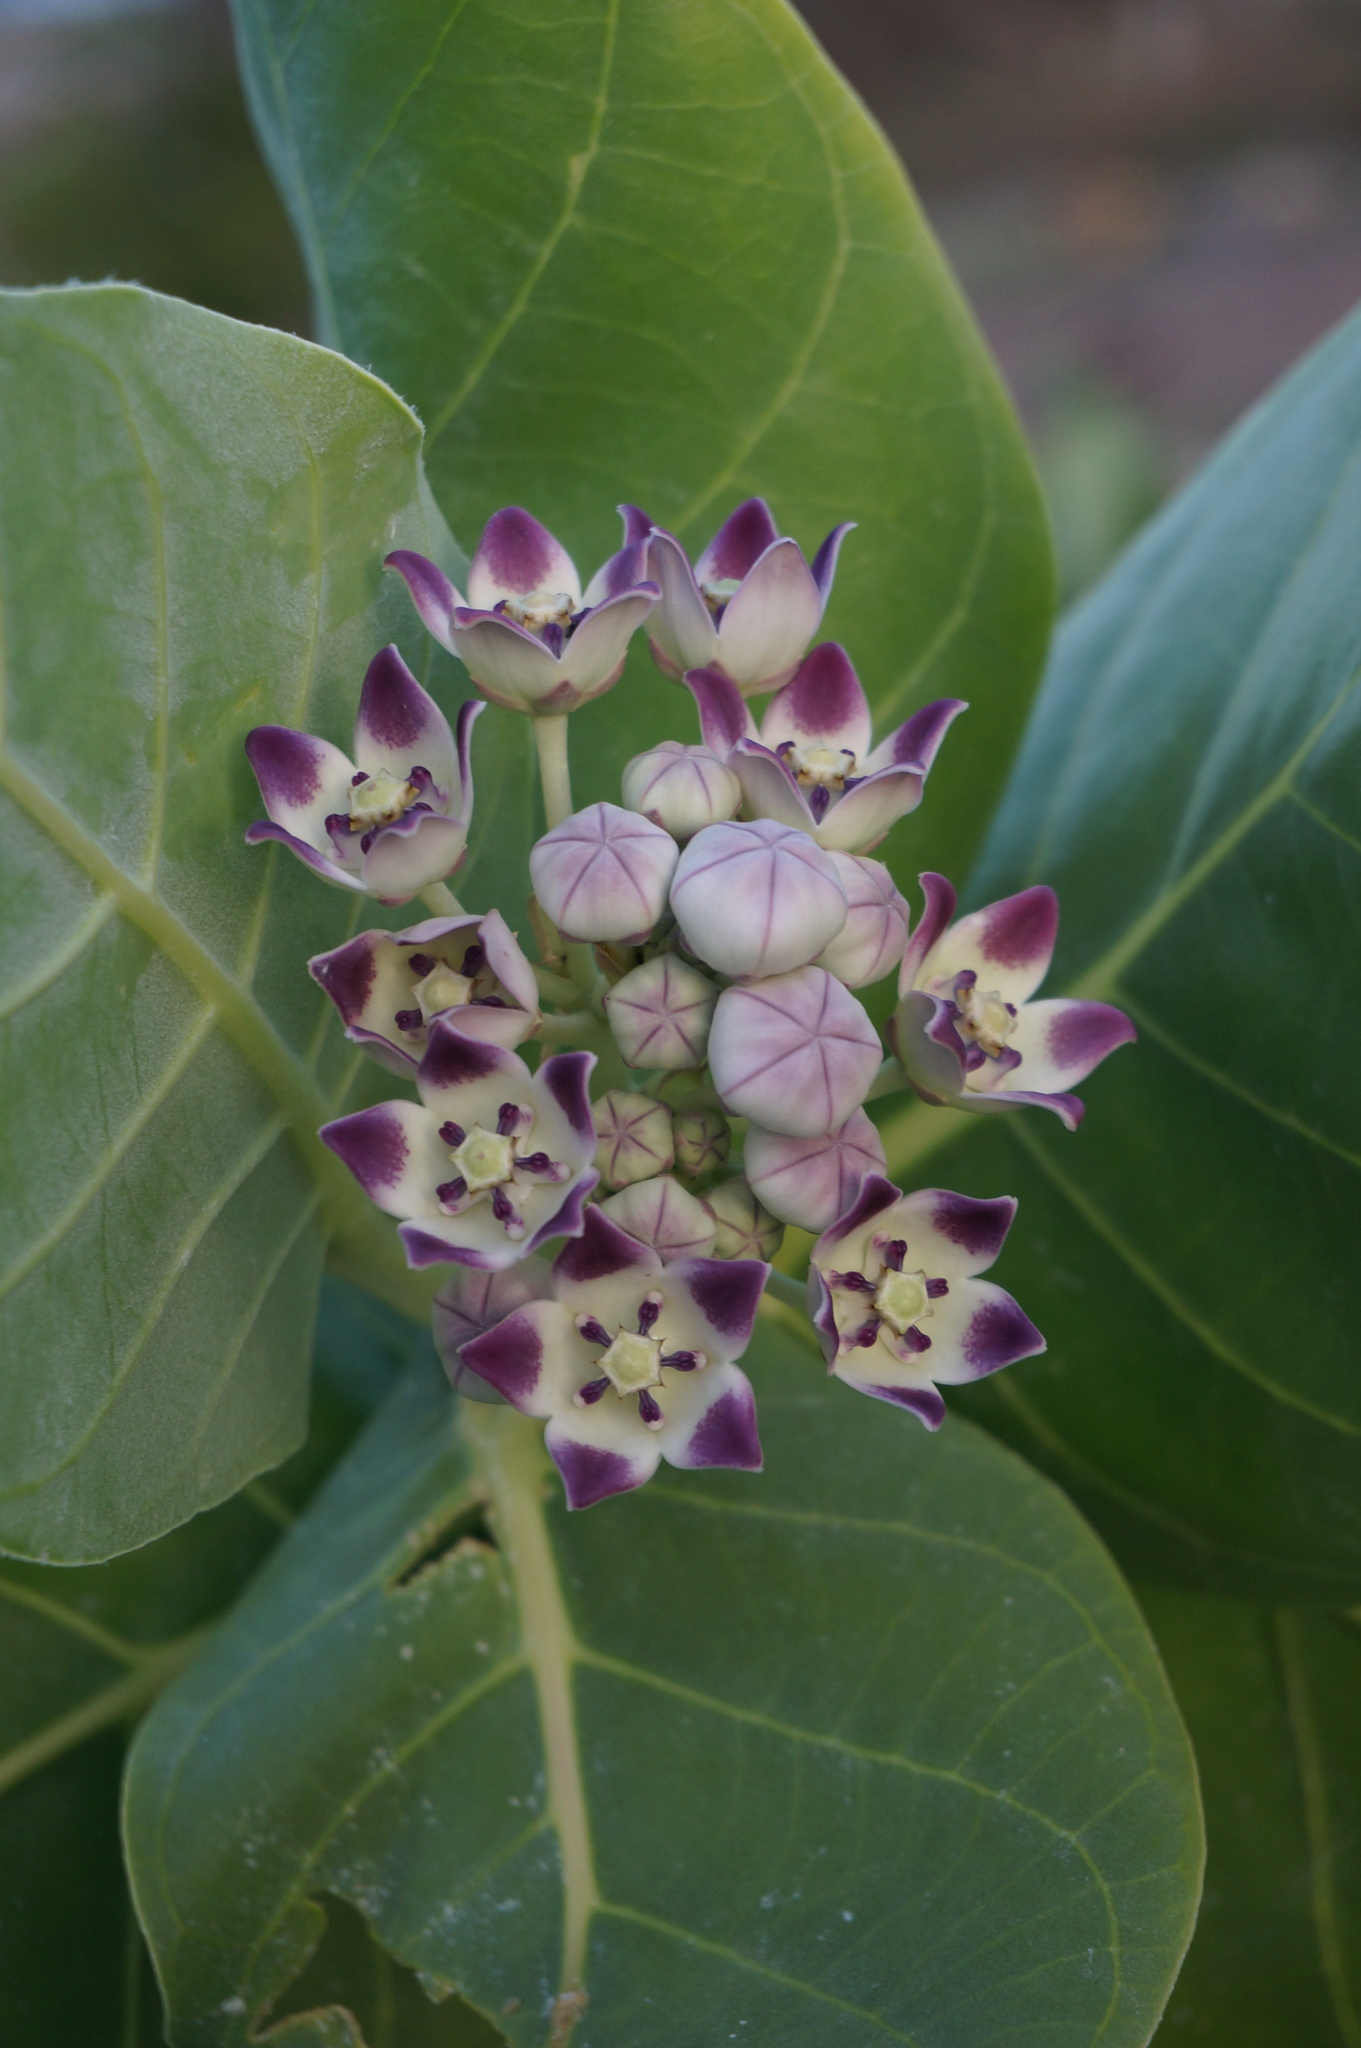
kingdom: Plantae
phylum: Tracheophyta
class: Magnoliopsida
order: Gentianales
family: Apocynaceae
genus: Calotropis
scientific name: Calotropis procera
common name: Roostertree
